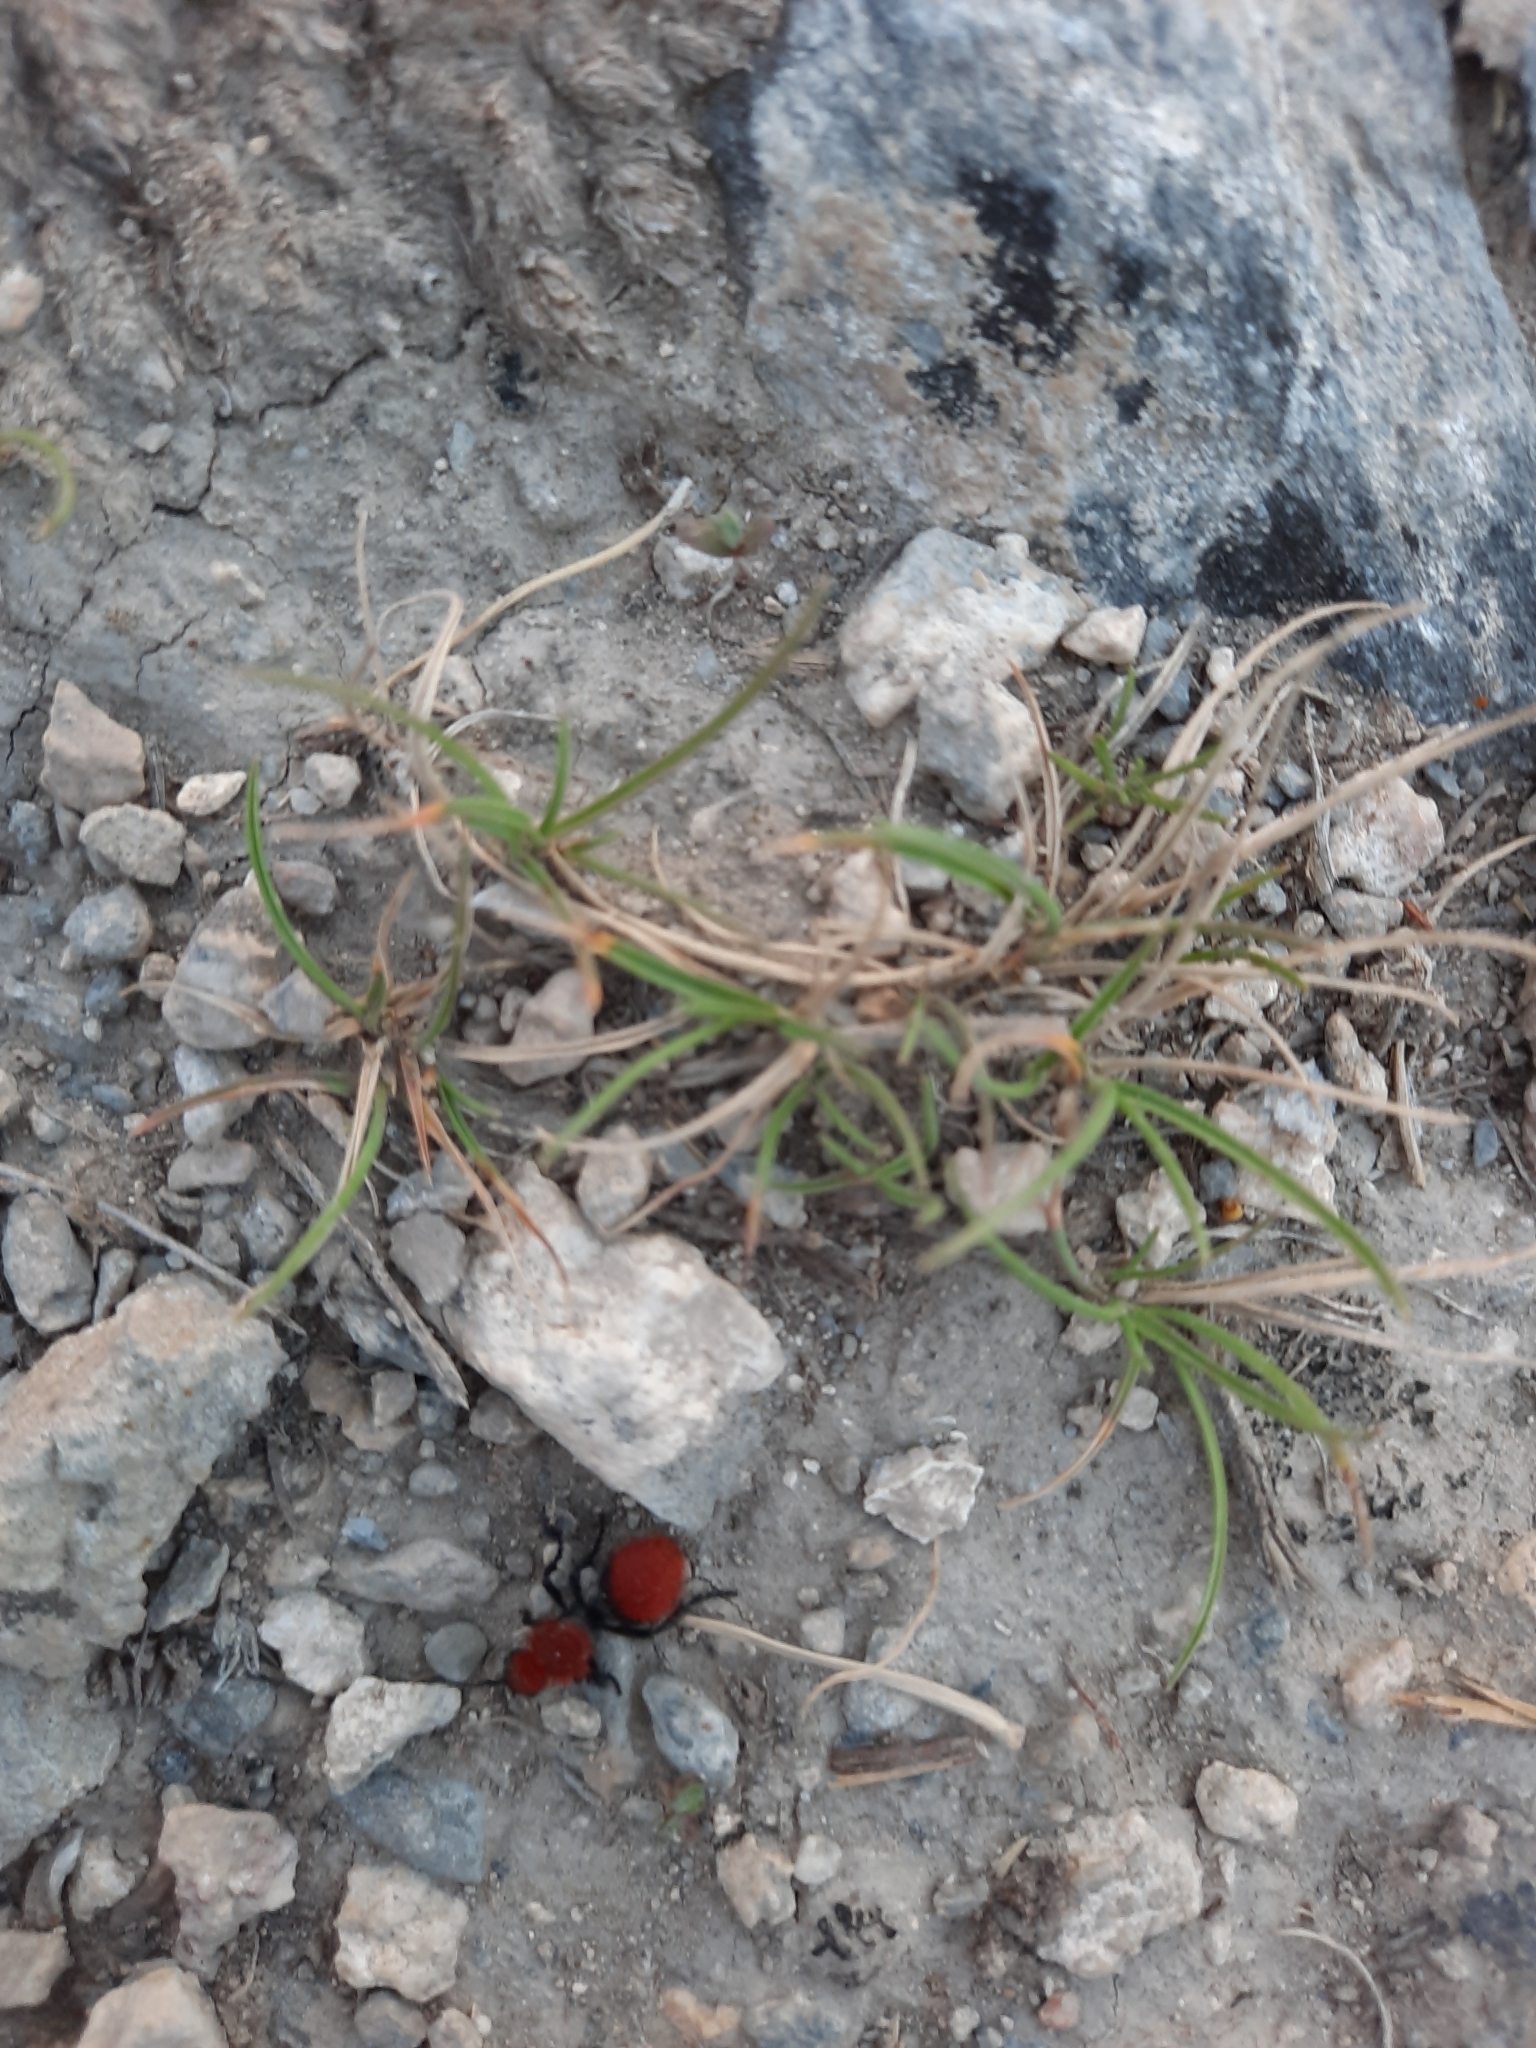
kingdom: Animalia
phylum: Arthropoda
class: Insecta
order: Hymenoptera
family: Mutillidae
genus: Dasymutilla
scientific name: Dasymutilla vestita
